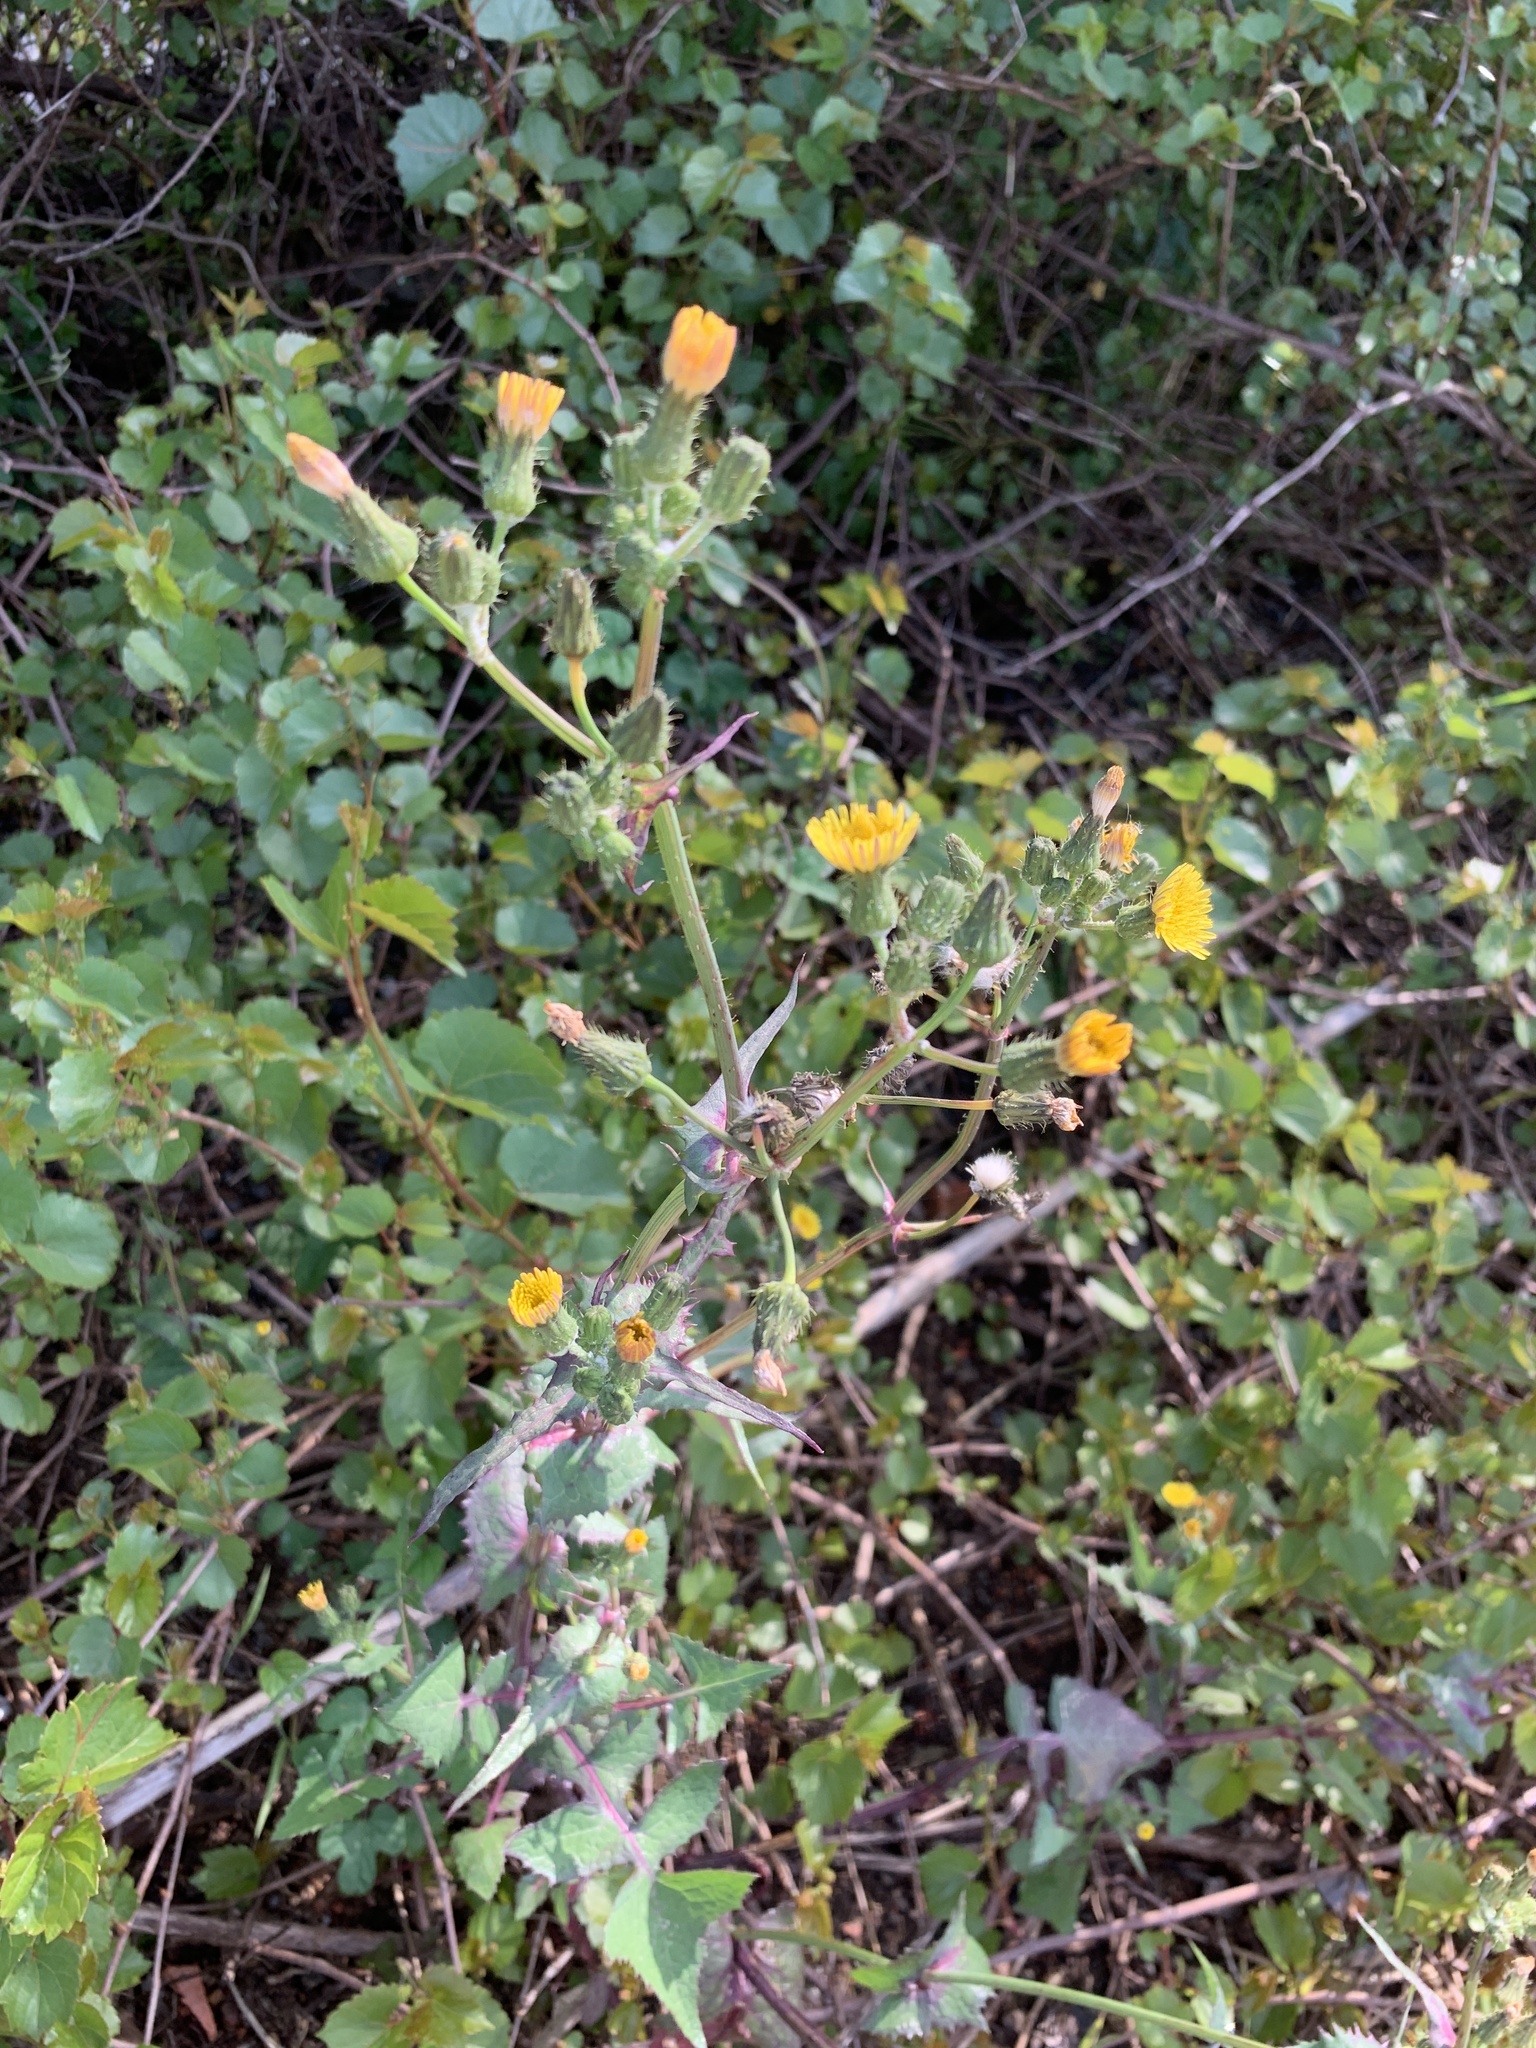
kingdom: Plantae
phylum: Tracheophyta
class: Magnoliopsida
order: Asterales
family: Asteraceae
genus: Sonchus
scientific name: Sonchus oleraceus
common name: Common sowthistle
